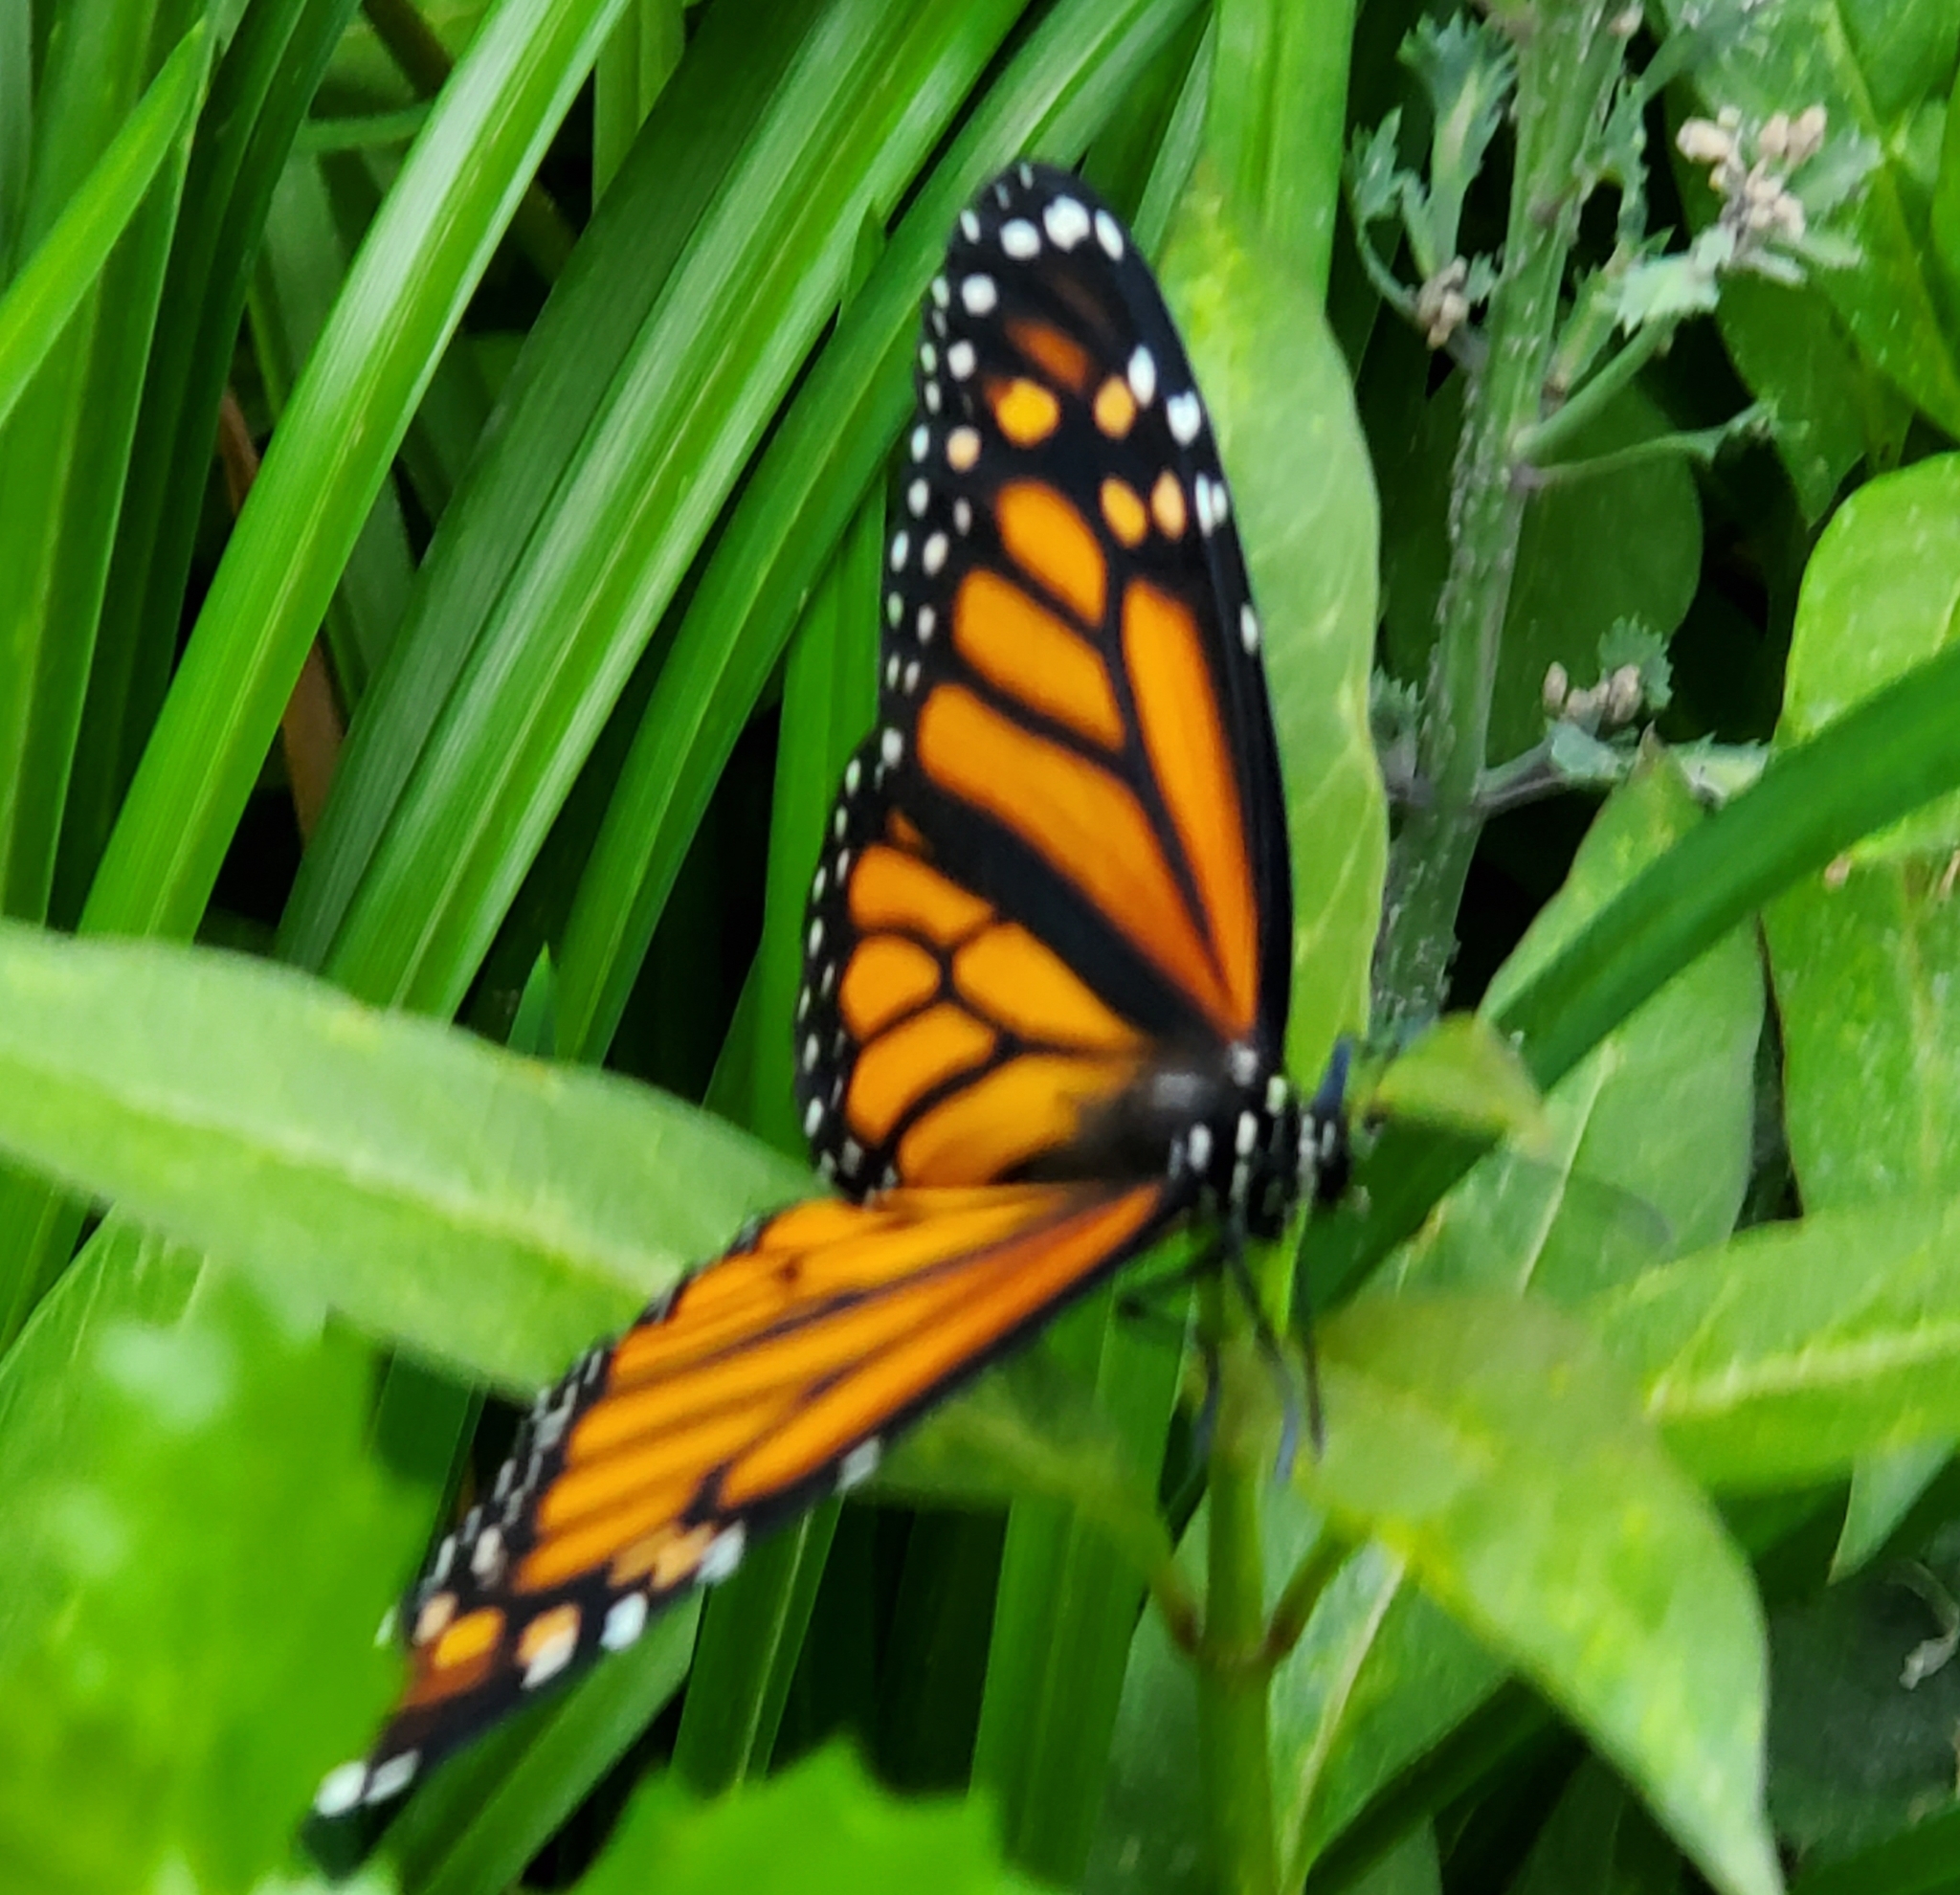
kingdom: Animalia
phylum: Arthropoda
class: Insecta
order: Lepidoptera
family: Nymphalidae
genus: Danaus
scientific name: Danaus plexippus
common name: Monarch
